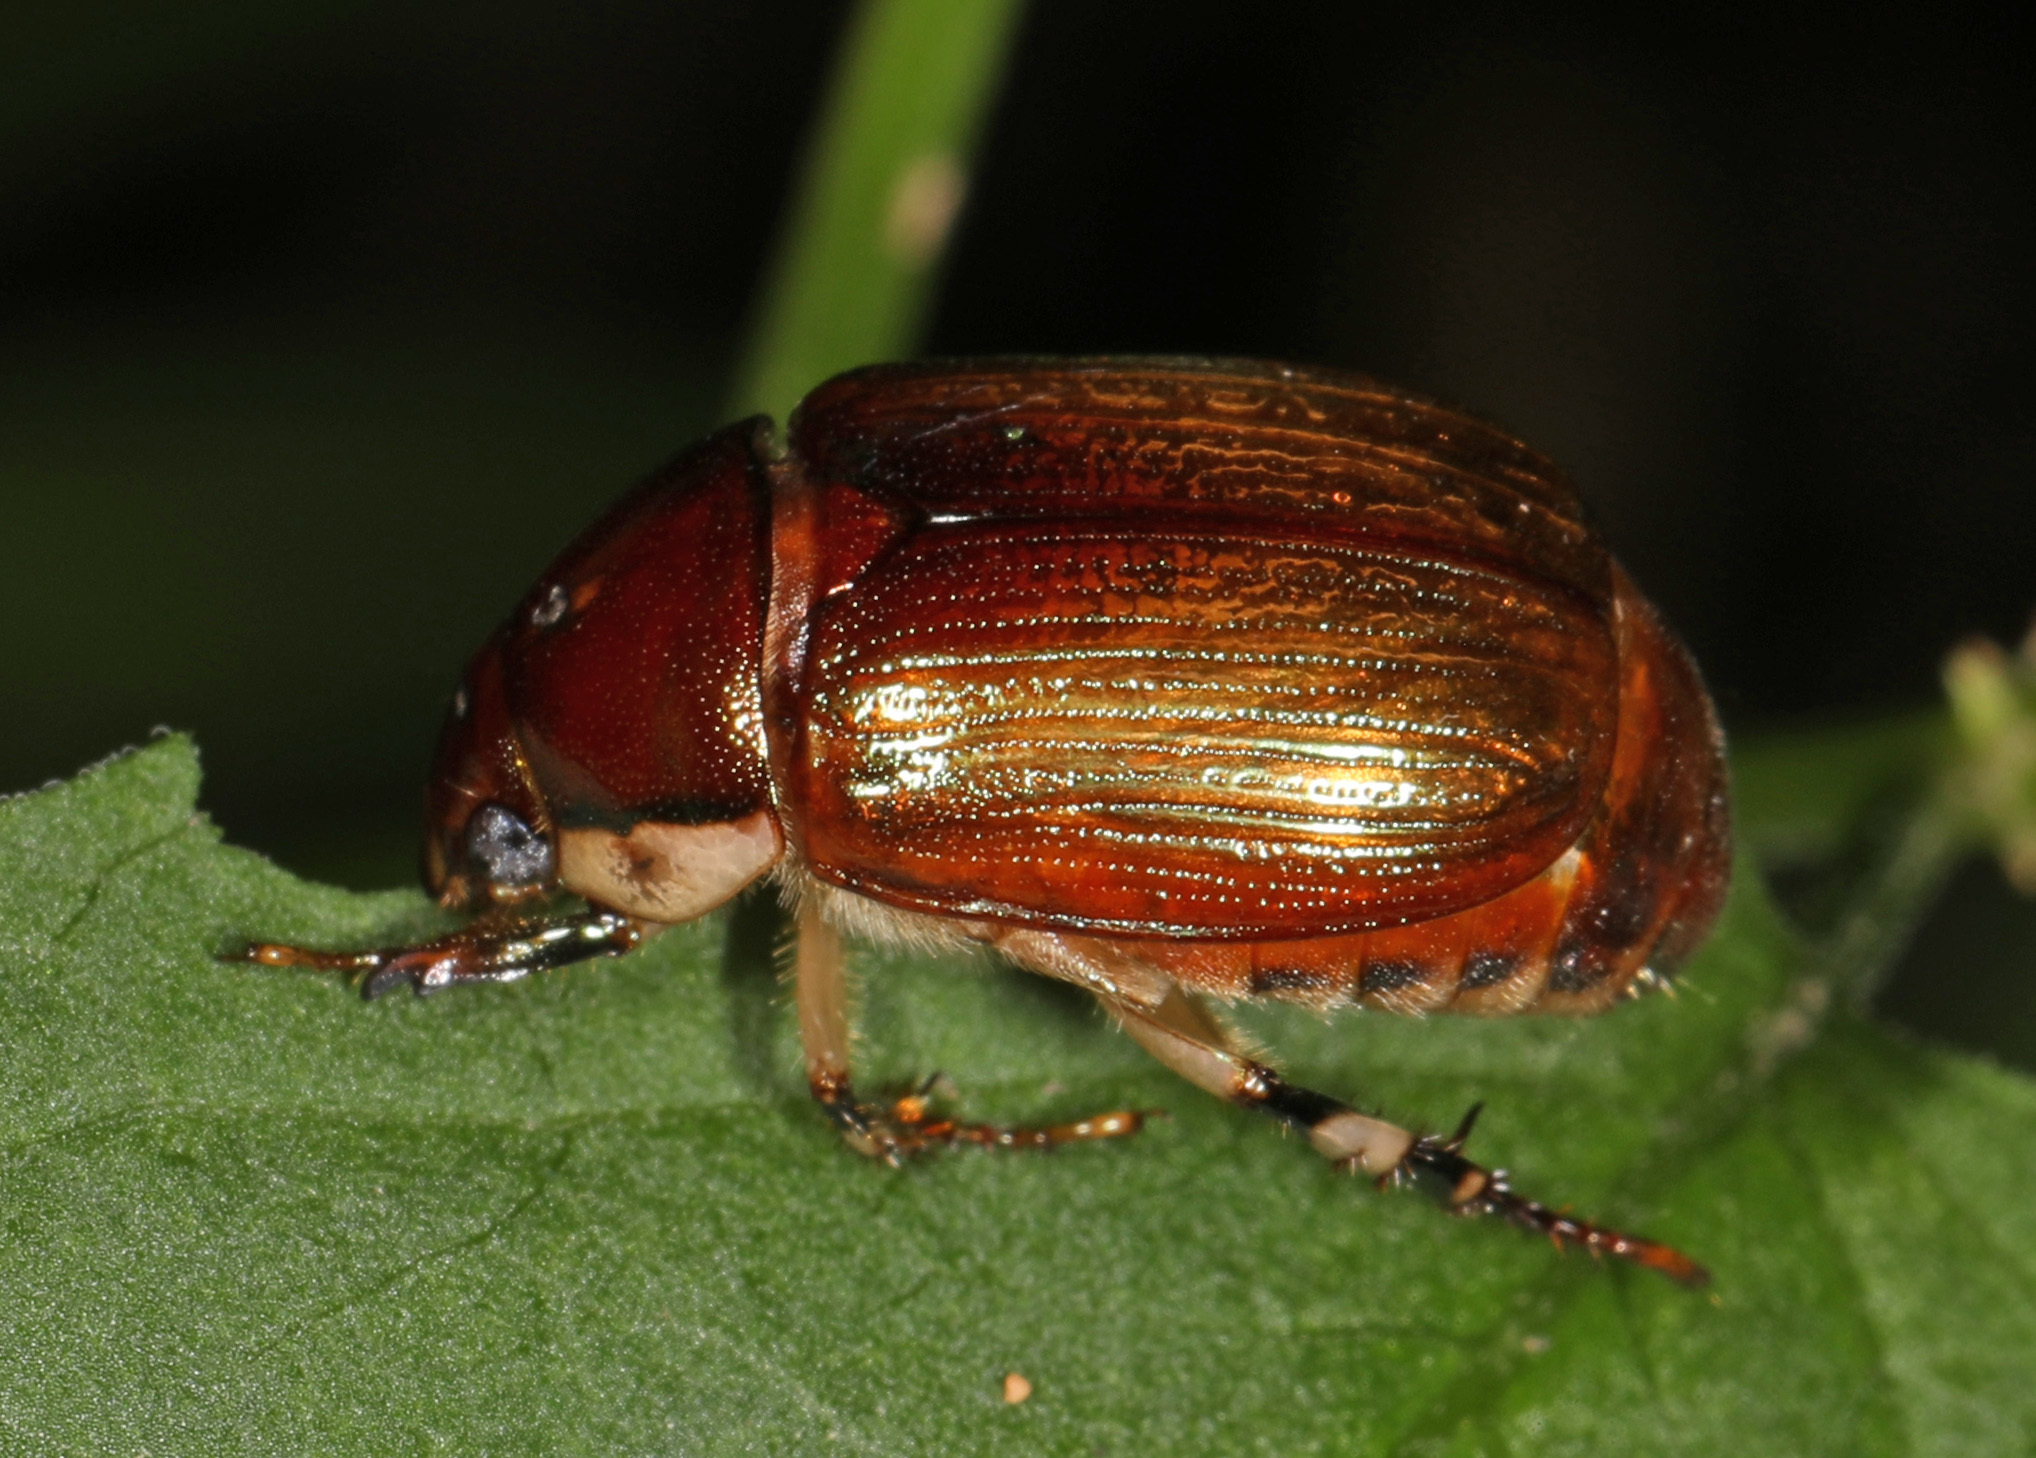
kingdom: Animalia
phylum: Arthropoda
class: Insecta
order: Coleoptera
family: Scarabaeidae
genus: Callistethus
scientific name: Callistethus marginatus
